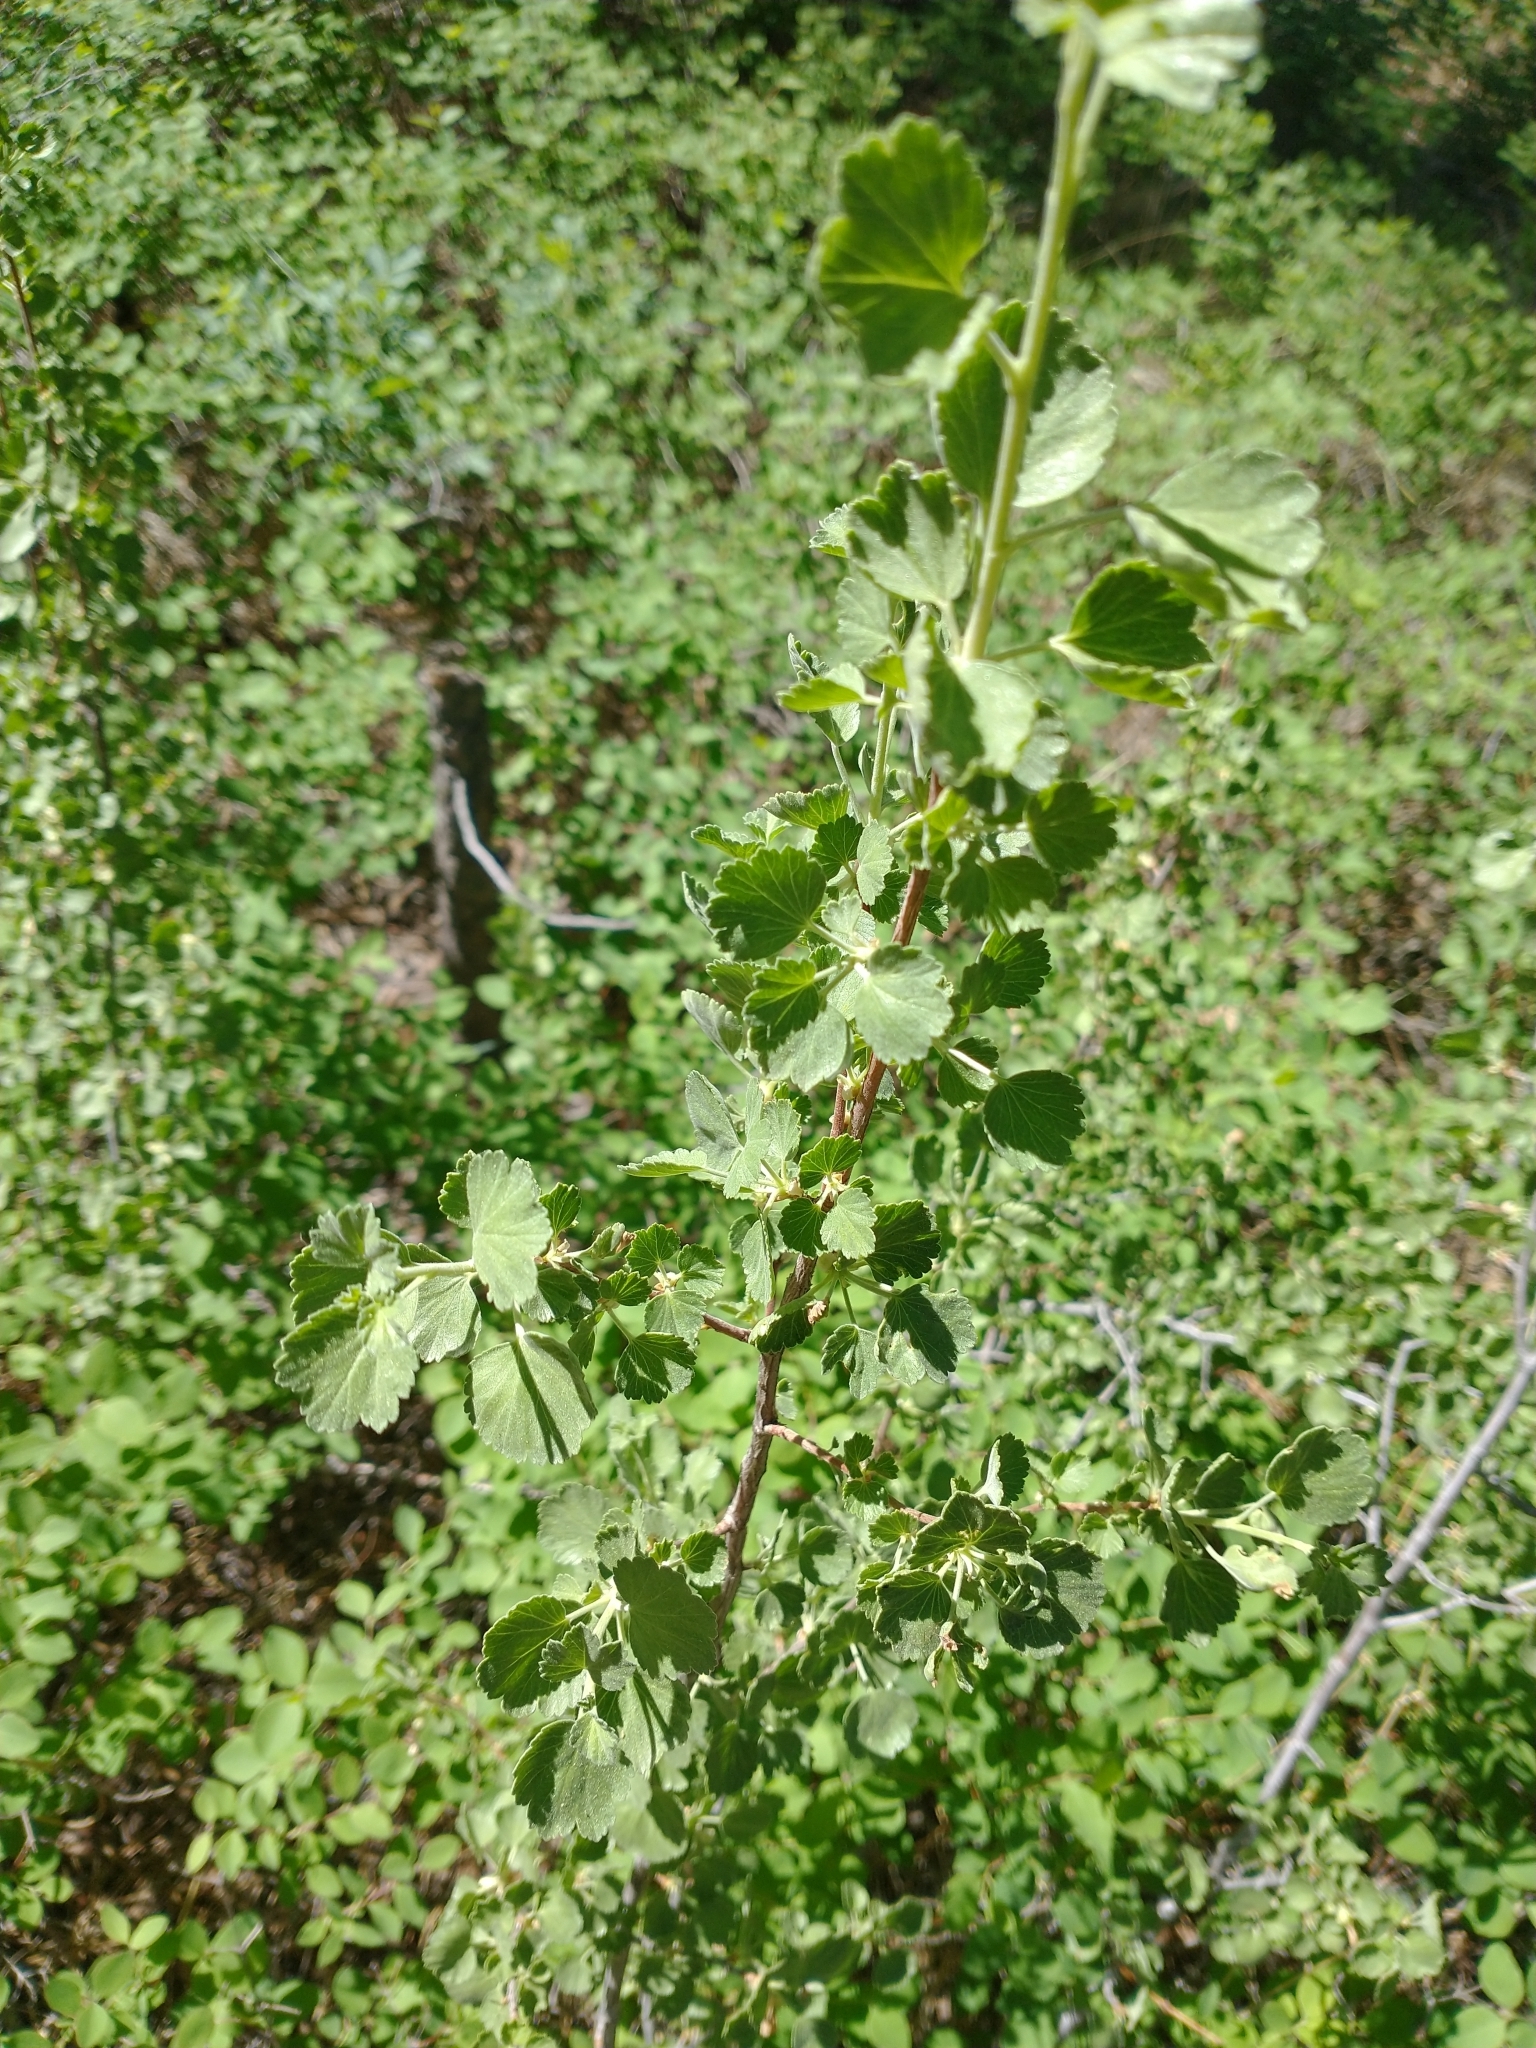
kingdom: Plantae
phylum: Tracheophyta
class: Magnoliopsida
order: Saxifragales
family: Grossulariaceae
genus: Ribes
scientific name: Ribes cereum
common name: Wax currant
